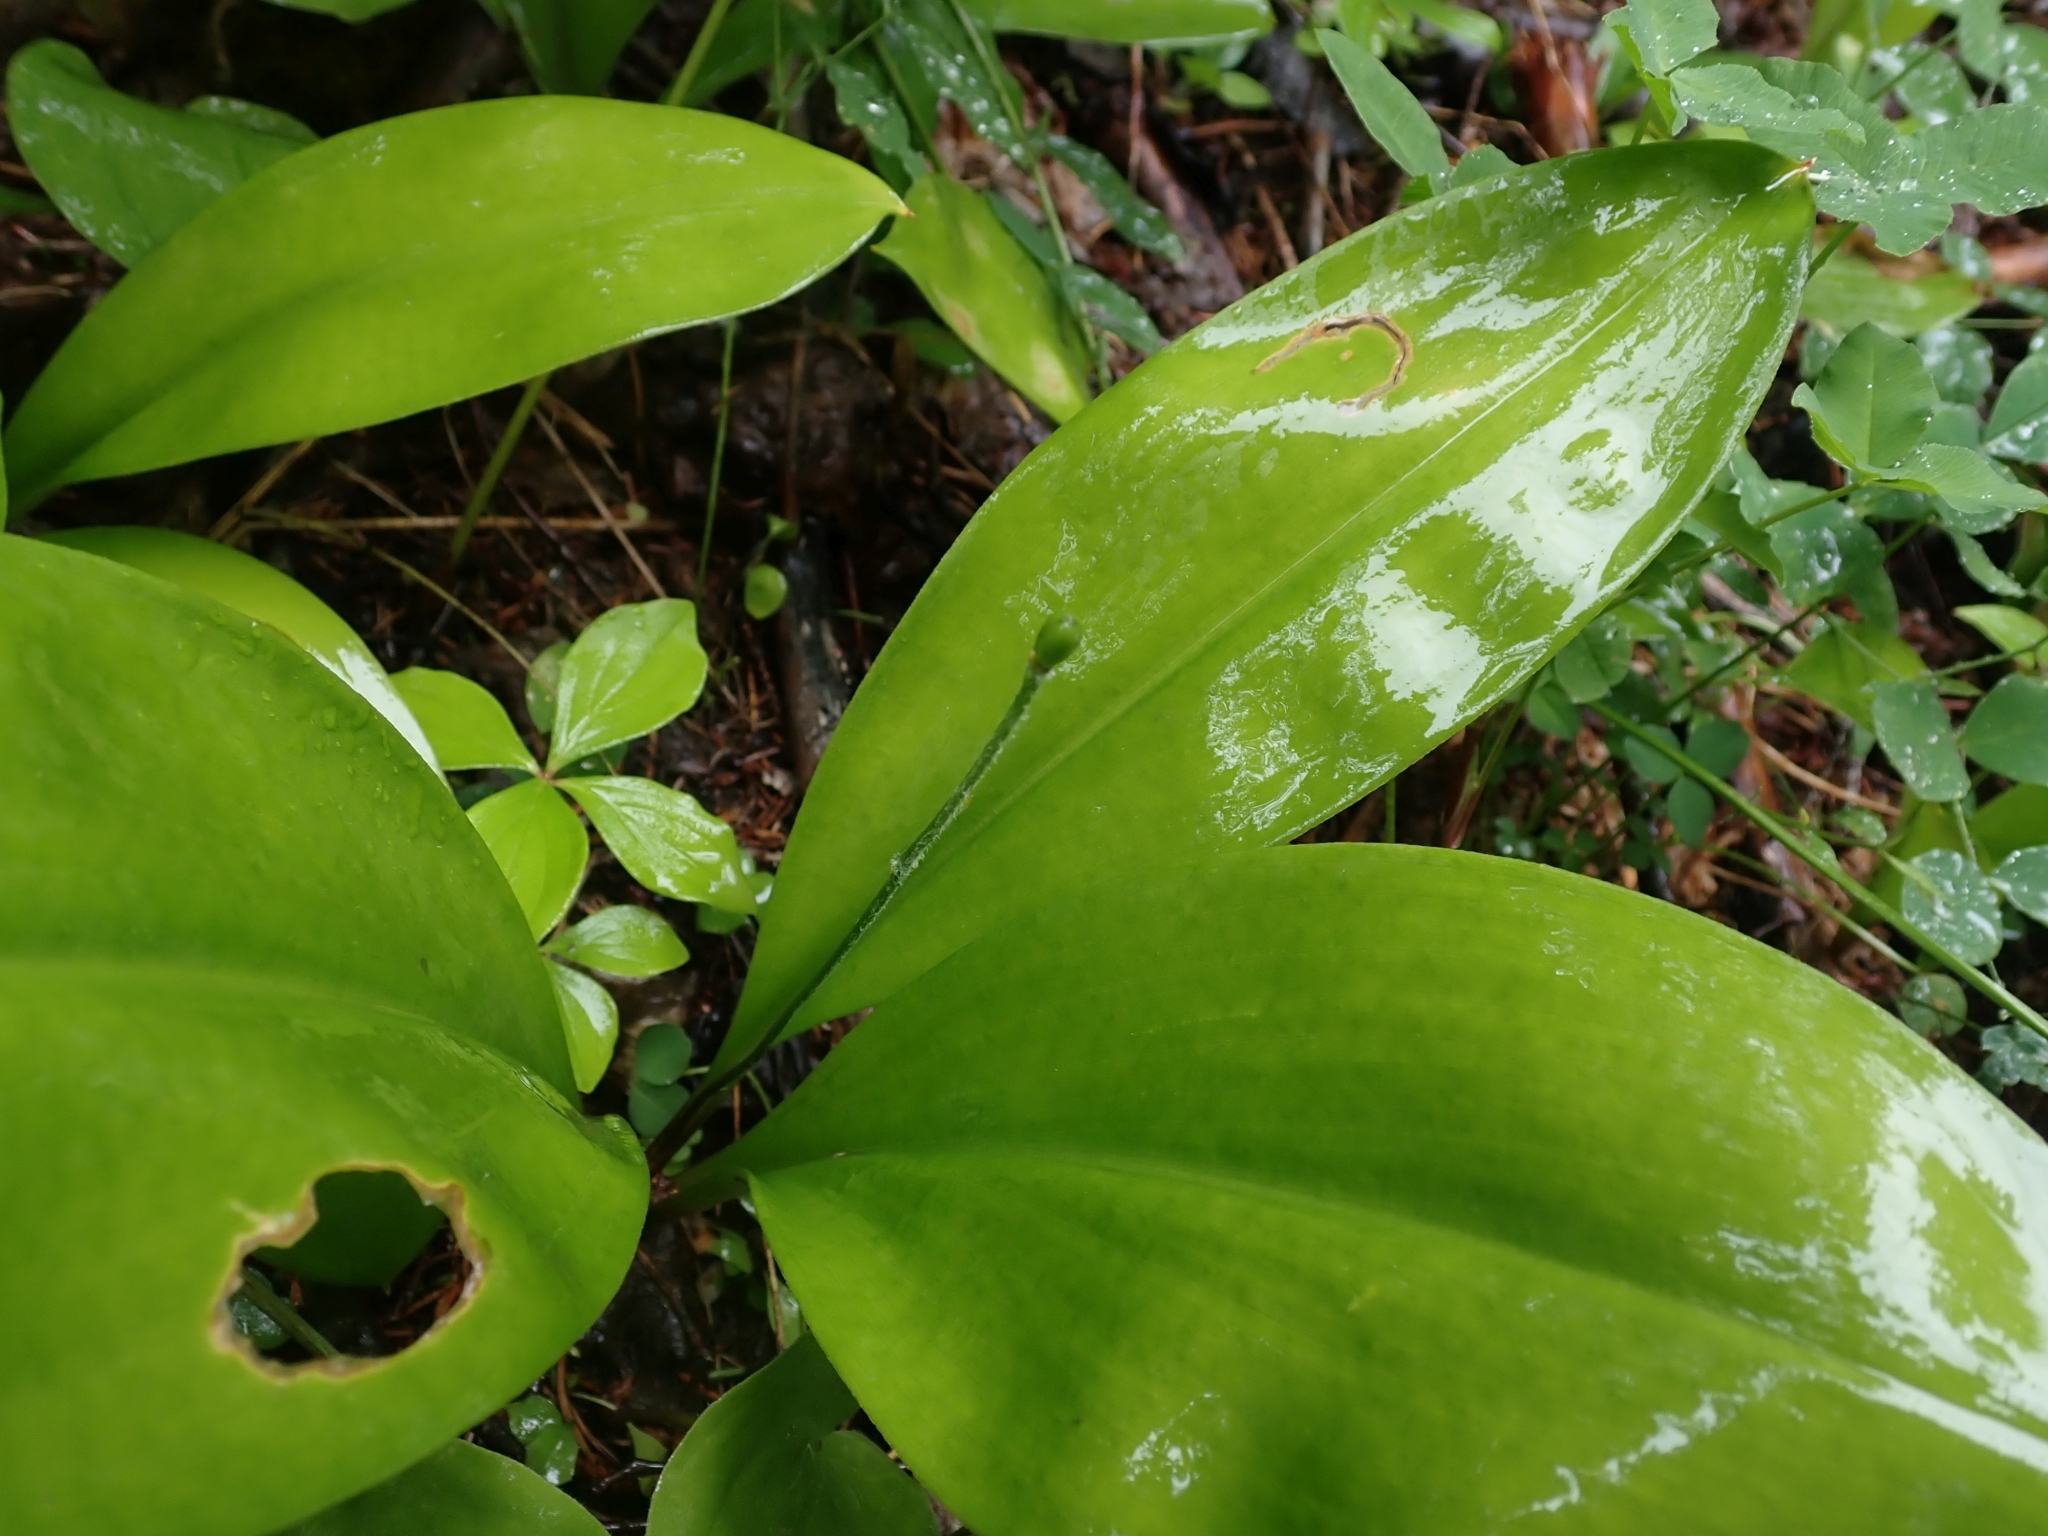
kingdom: Plantae
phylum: Tracheophyta
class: Liliopsida
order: Liliales
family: Liliaceae
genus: Clintonia
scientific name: Clintonia uniflora
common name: Queen's cup
